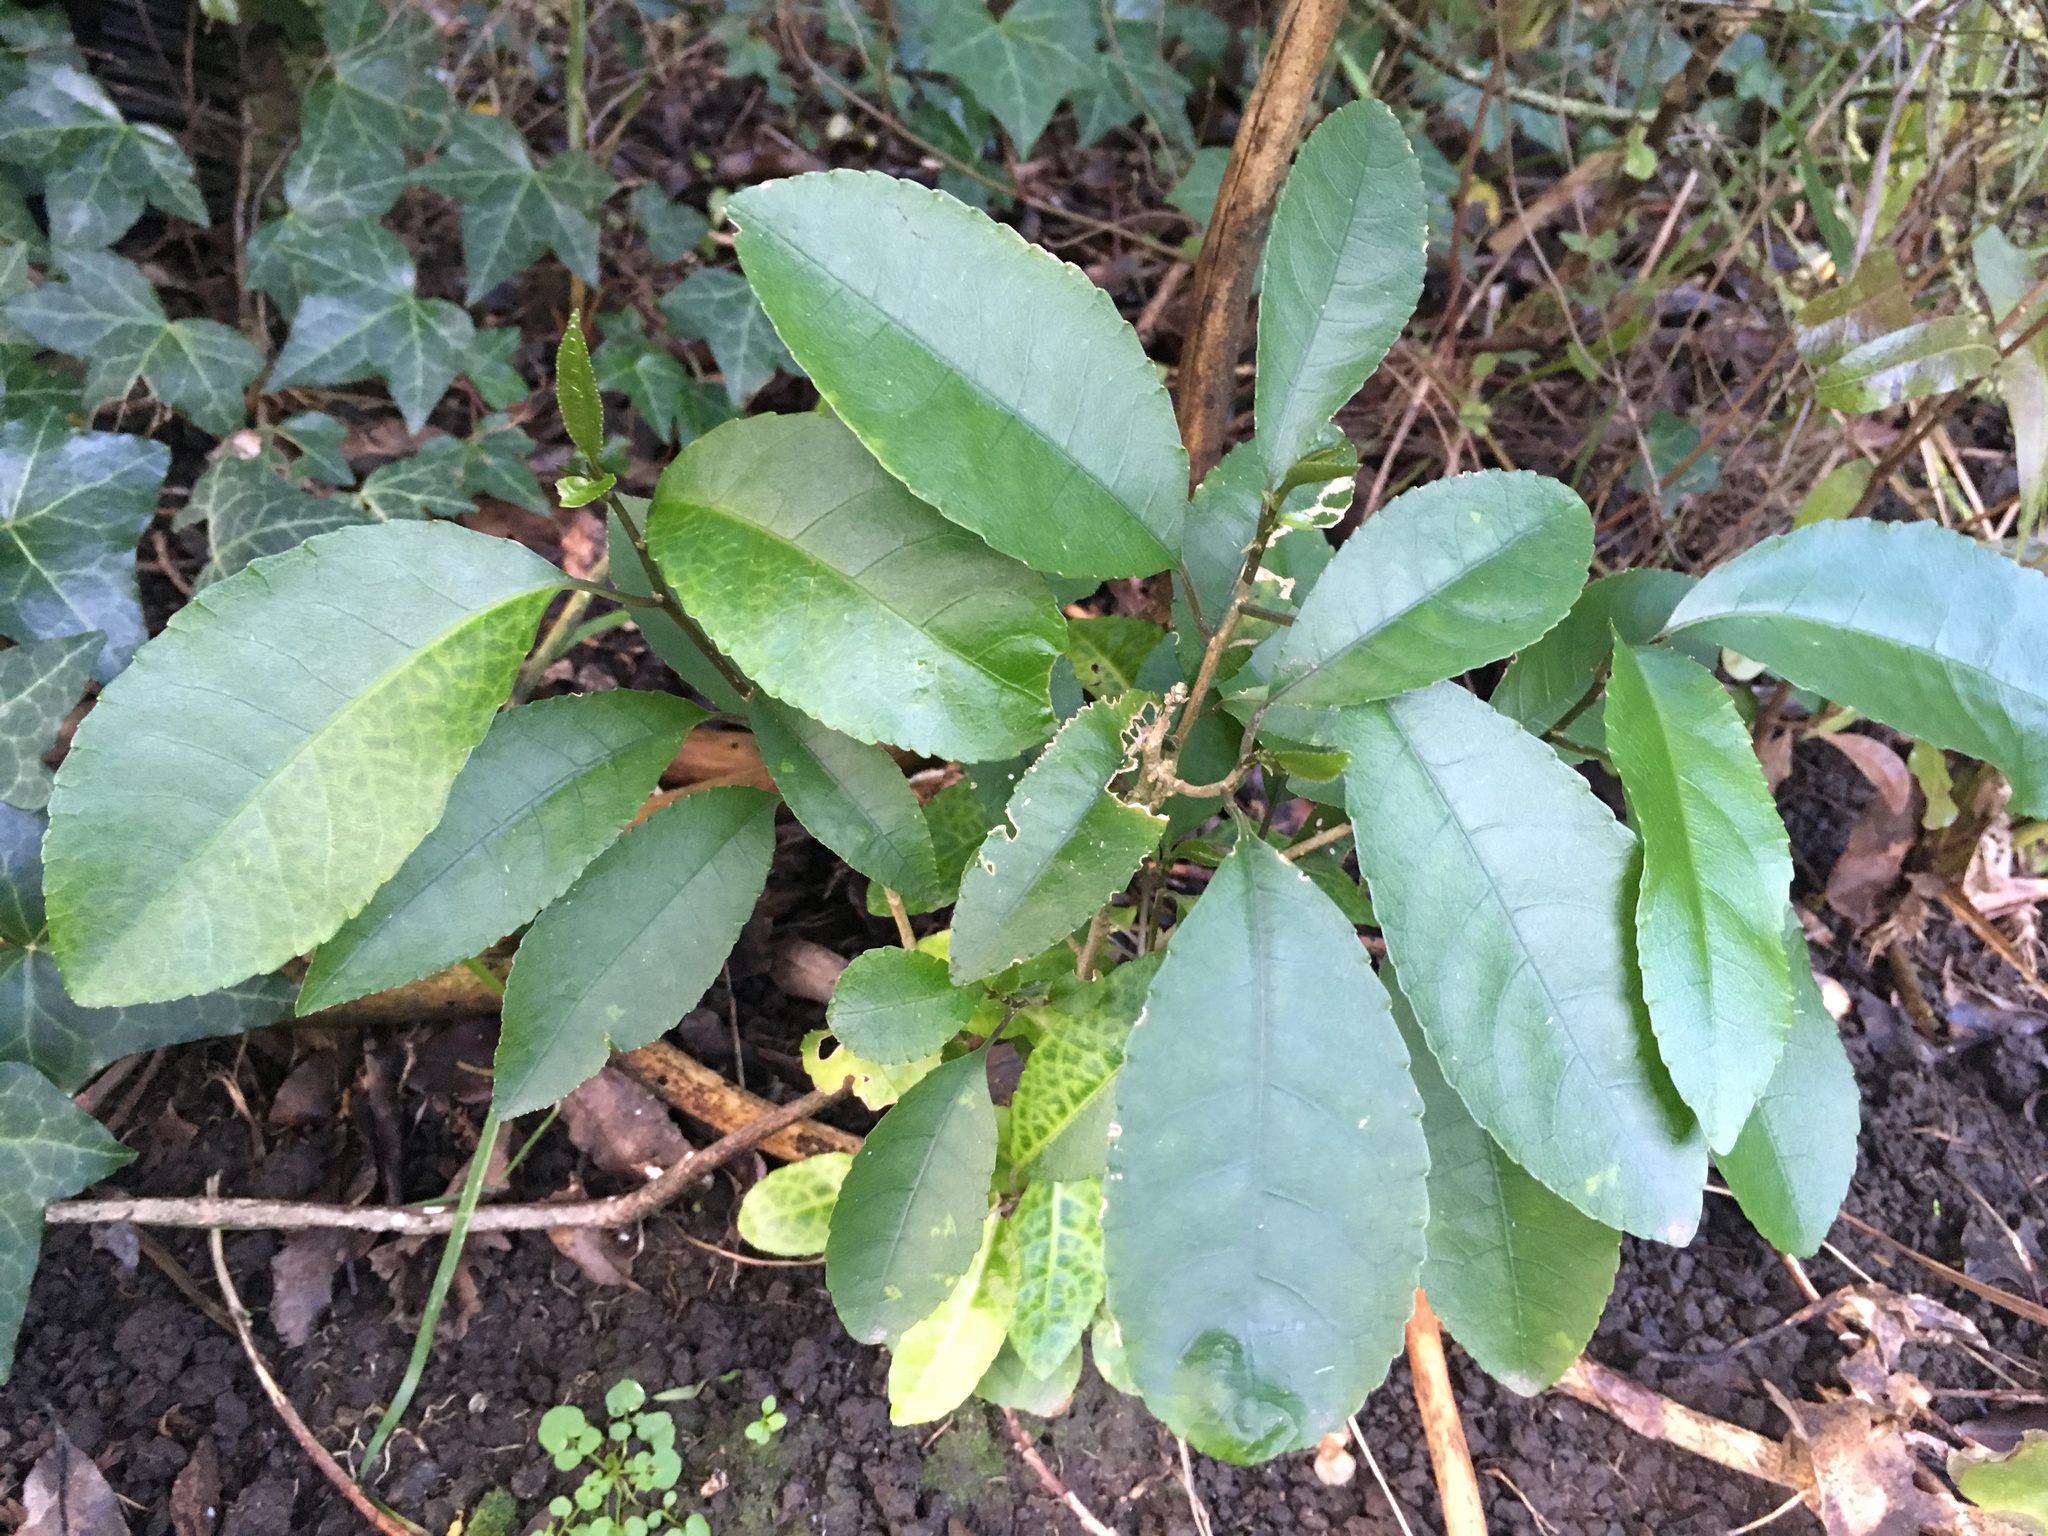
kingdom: Plantae
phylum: Tracheophyta
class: Magnoliopsida
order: Malpighiales
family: Violaceae
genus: Melicytus
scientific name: Melicytus ramiflorus
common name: Mahoe
